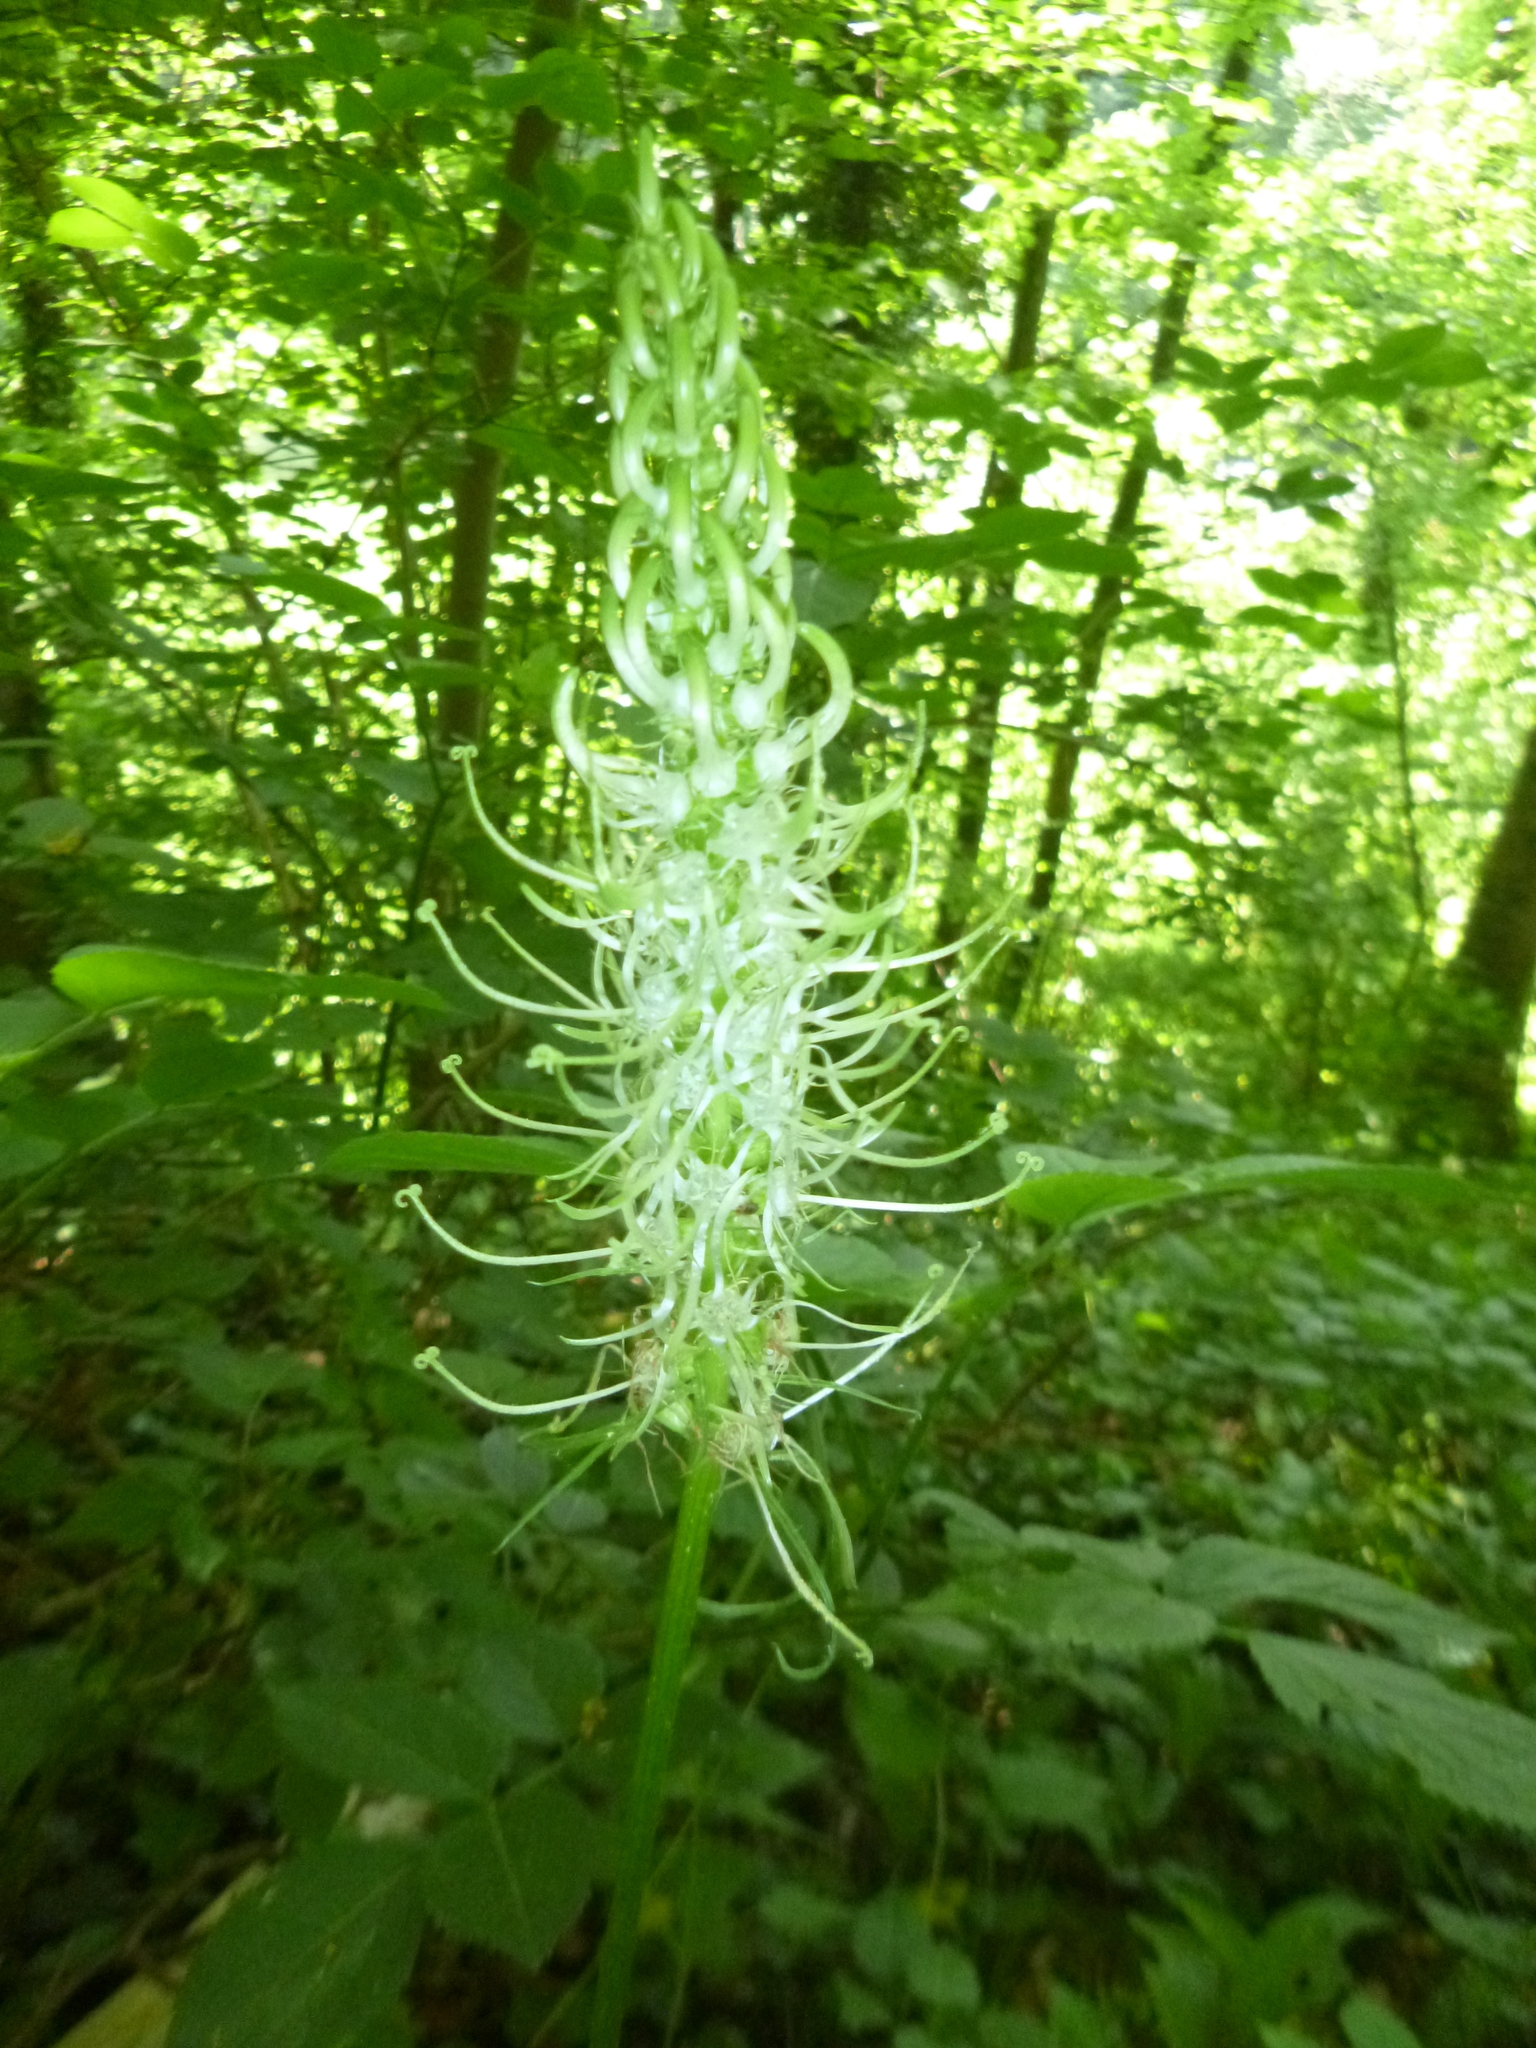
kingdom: Plantae
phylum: Tracheophyta
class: Magnoliopsida
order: Asterales
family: Campanulaceae
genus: Phyteuma
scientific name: Phyteuma spicatum
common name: Spiked rampion
